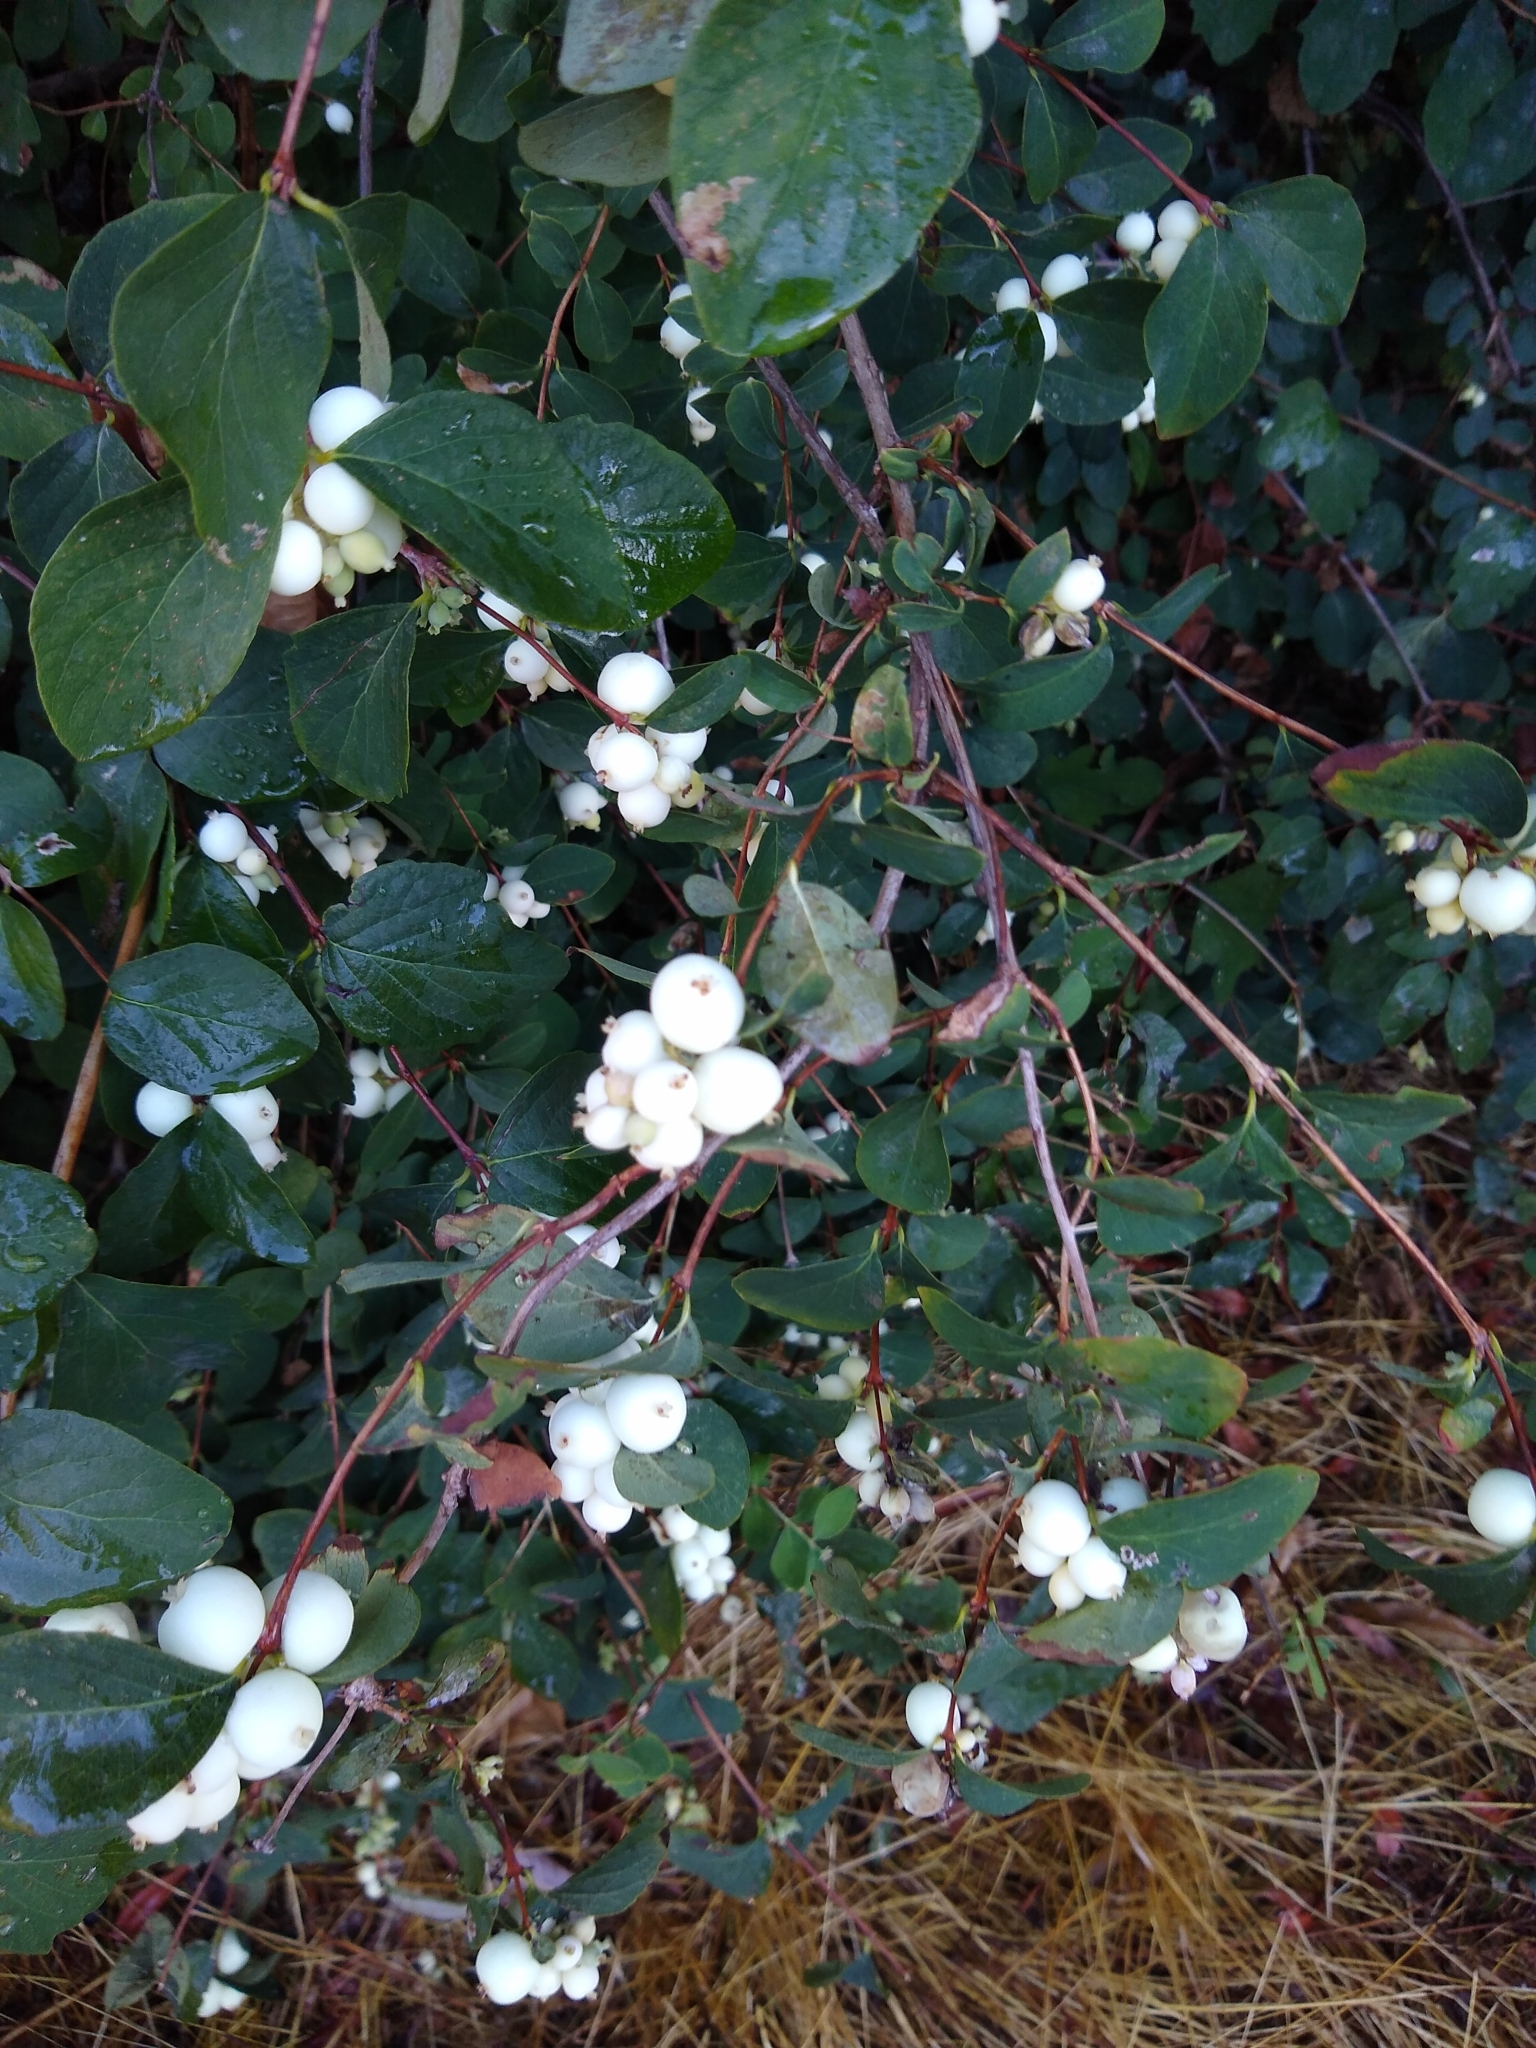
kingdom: Plantae
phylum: Tracheophyta
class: Magnoliopsida
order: Dipsacales
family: Caprifoliaceae
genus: Symphoricarpos
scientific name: Symphoricarpos albus
